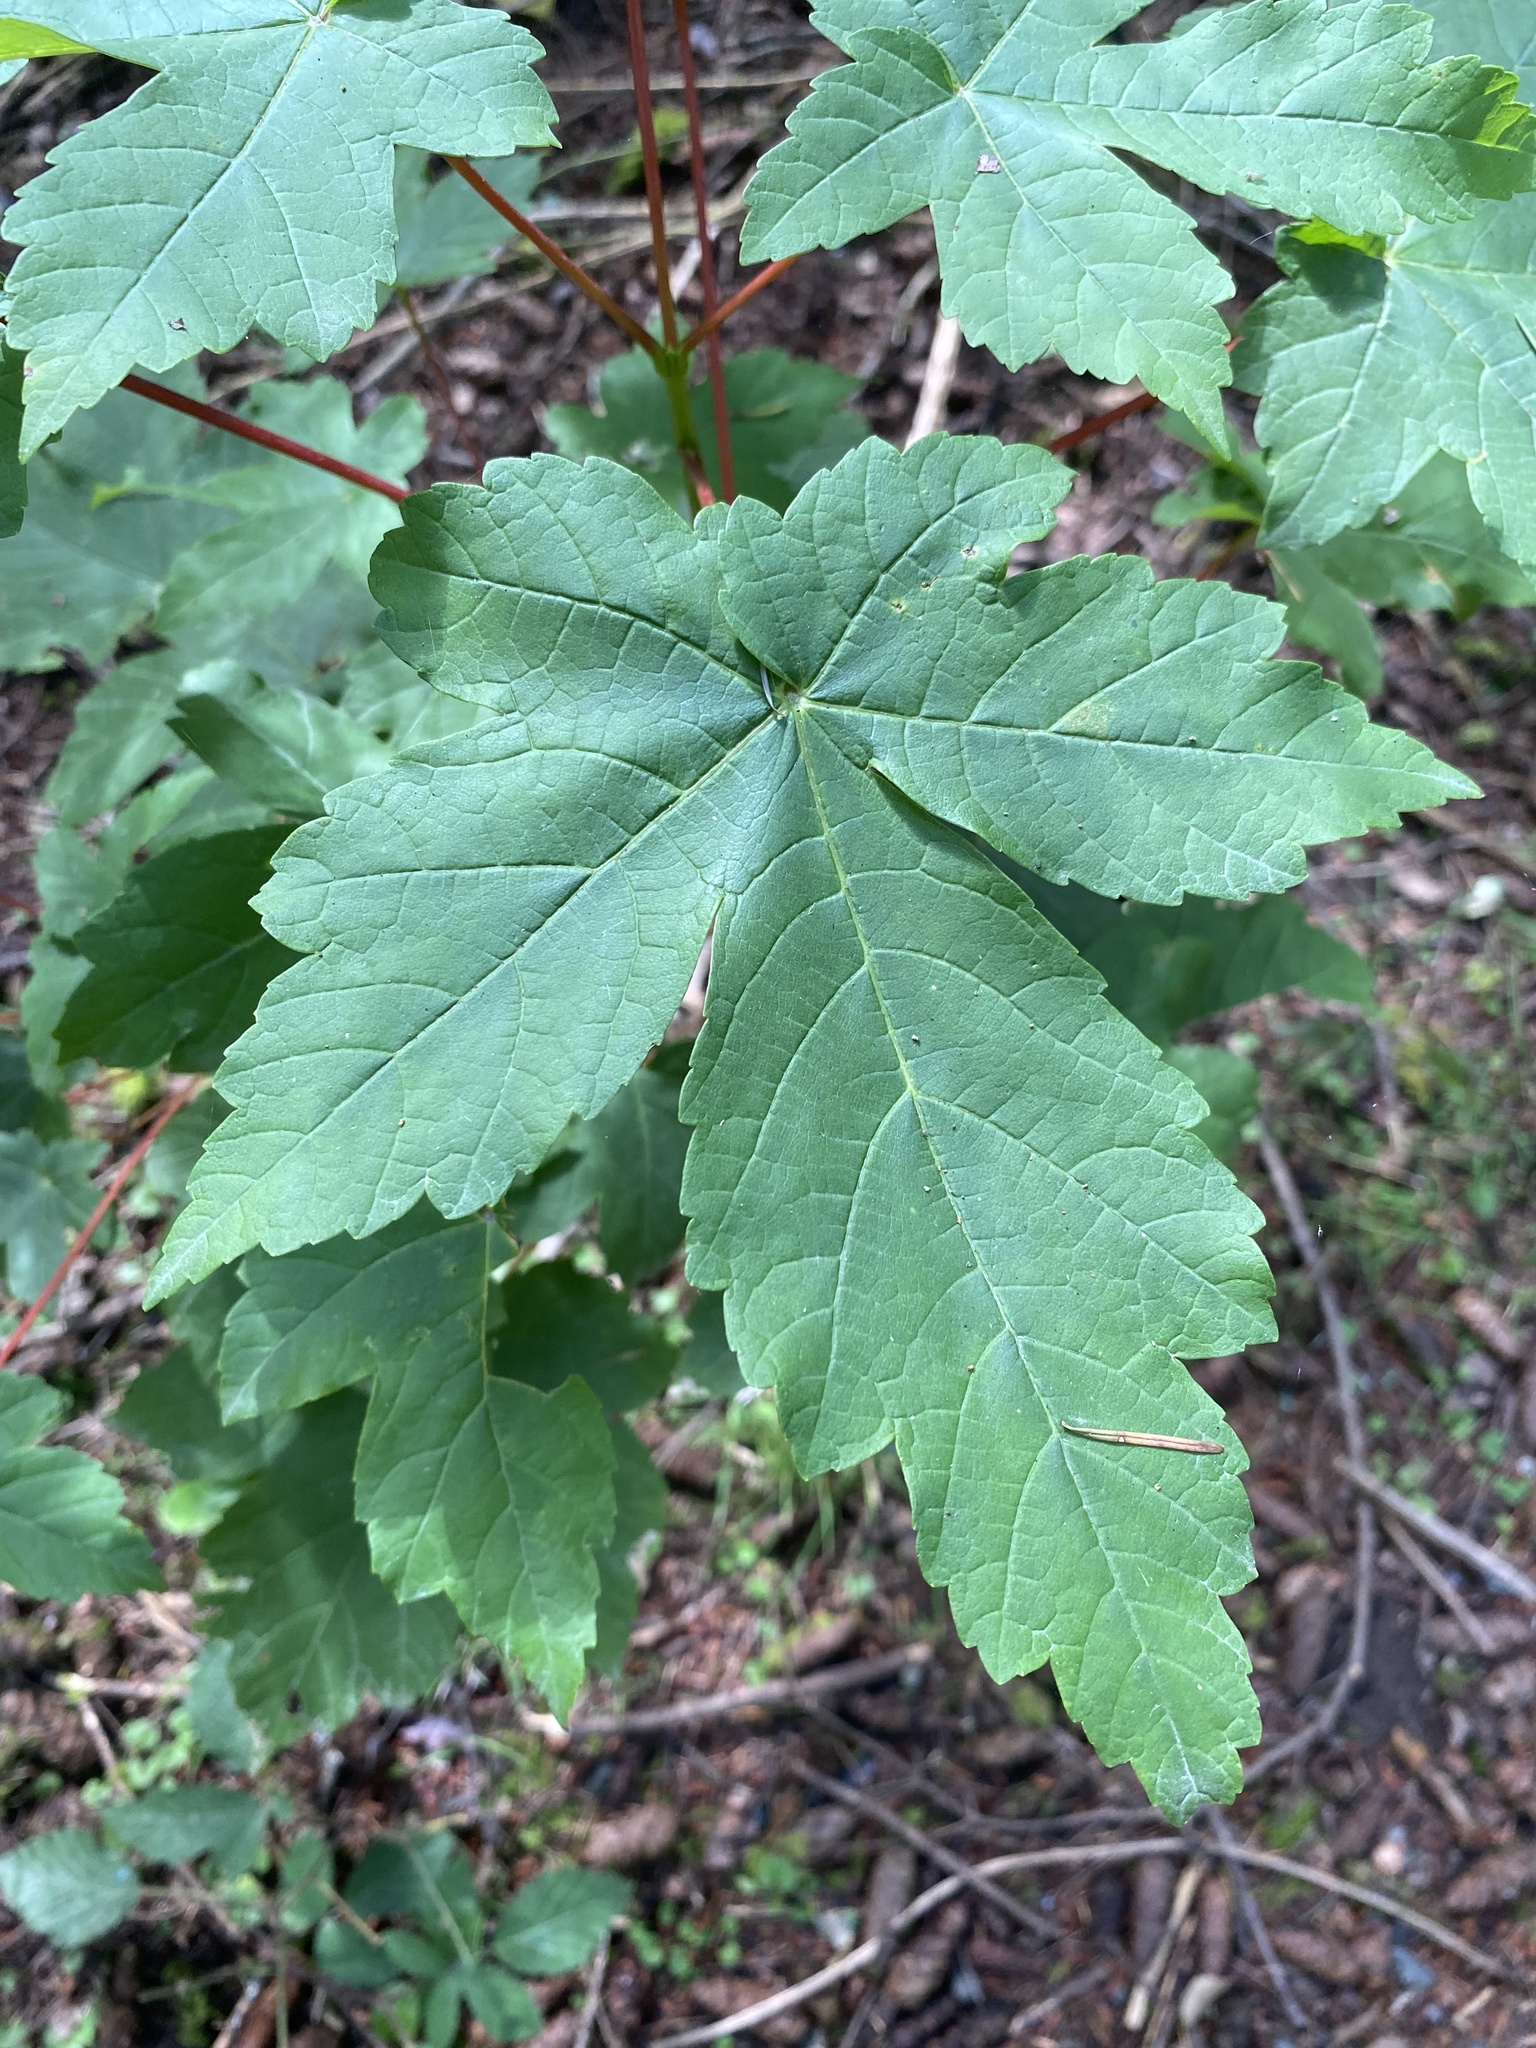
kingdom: Plantae
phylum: Tracheophyta
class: Magnoliopsida
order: Sapindales
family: Sapindaceae
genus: Acer
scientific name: Acer pseudoplatanus
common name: Sycamore
